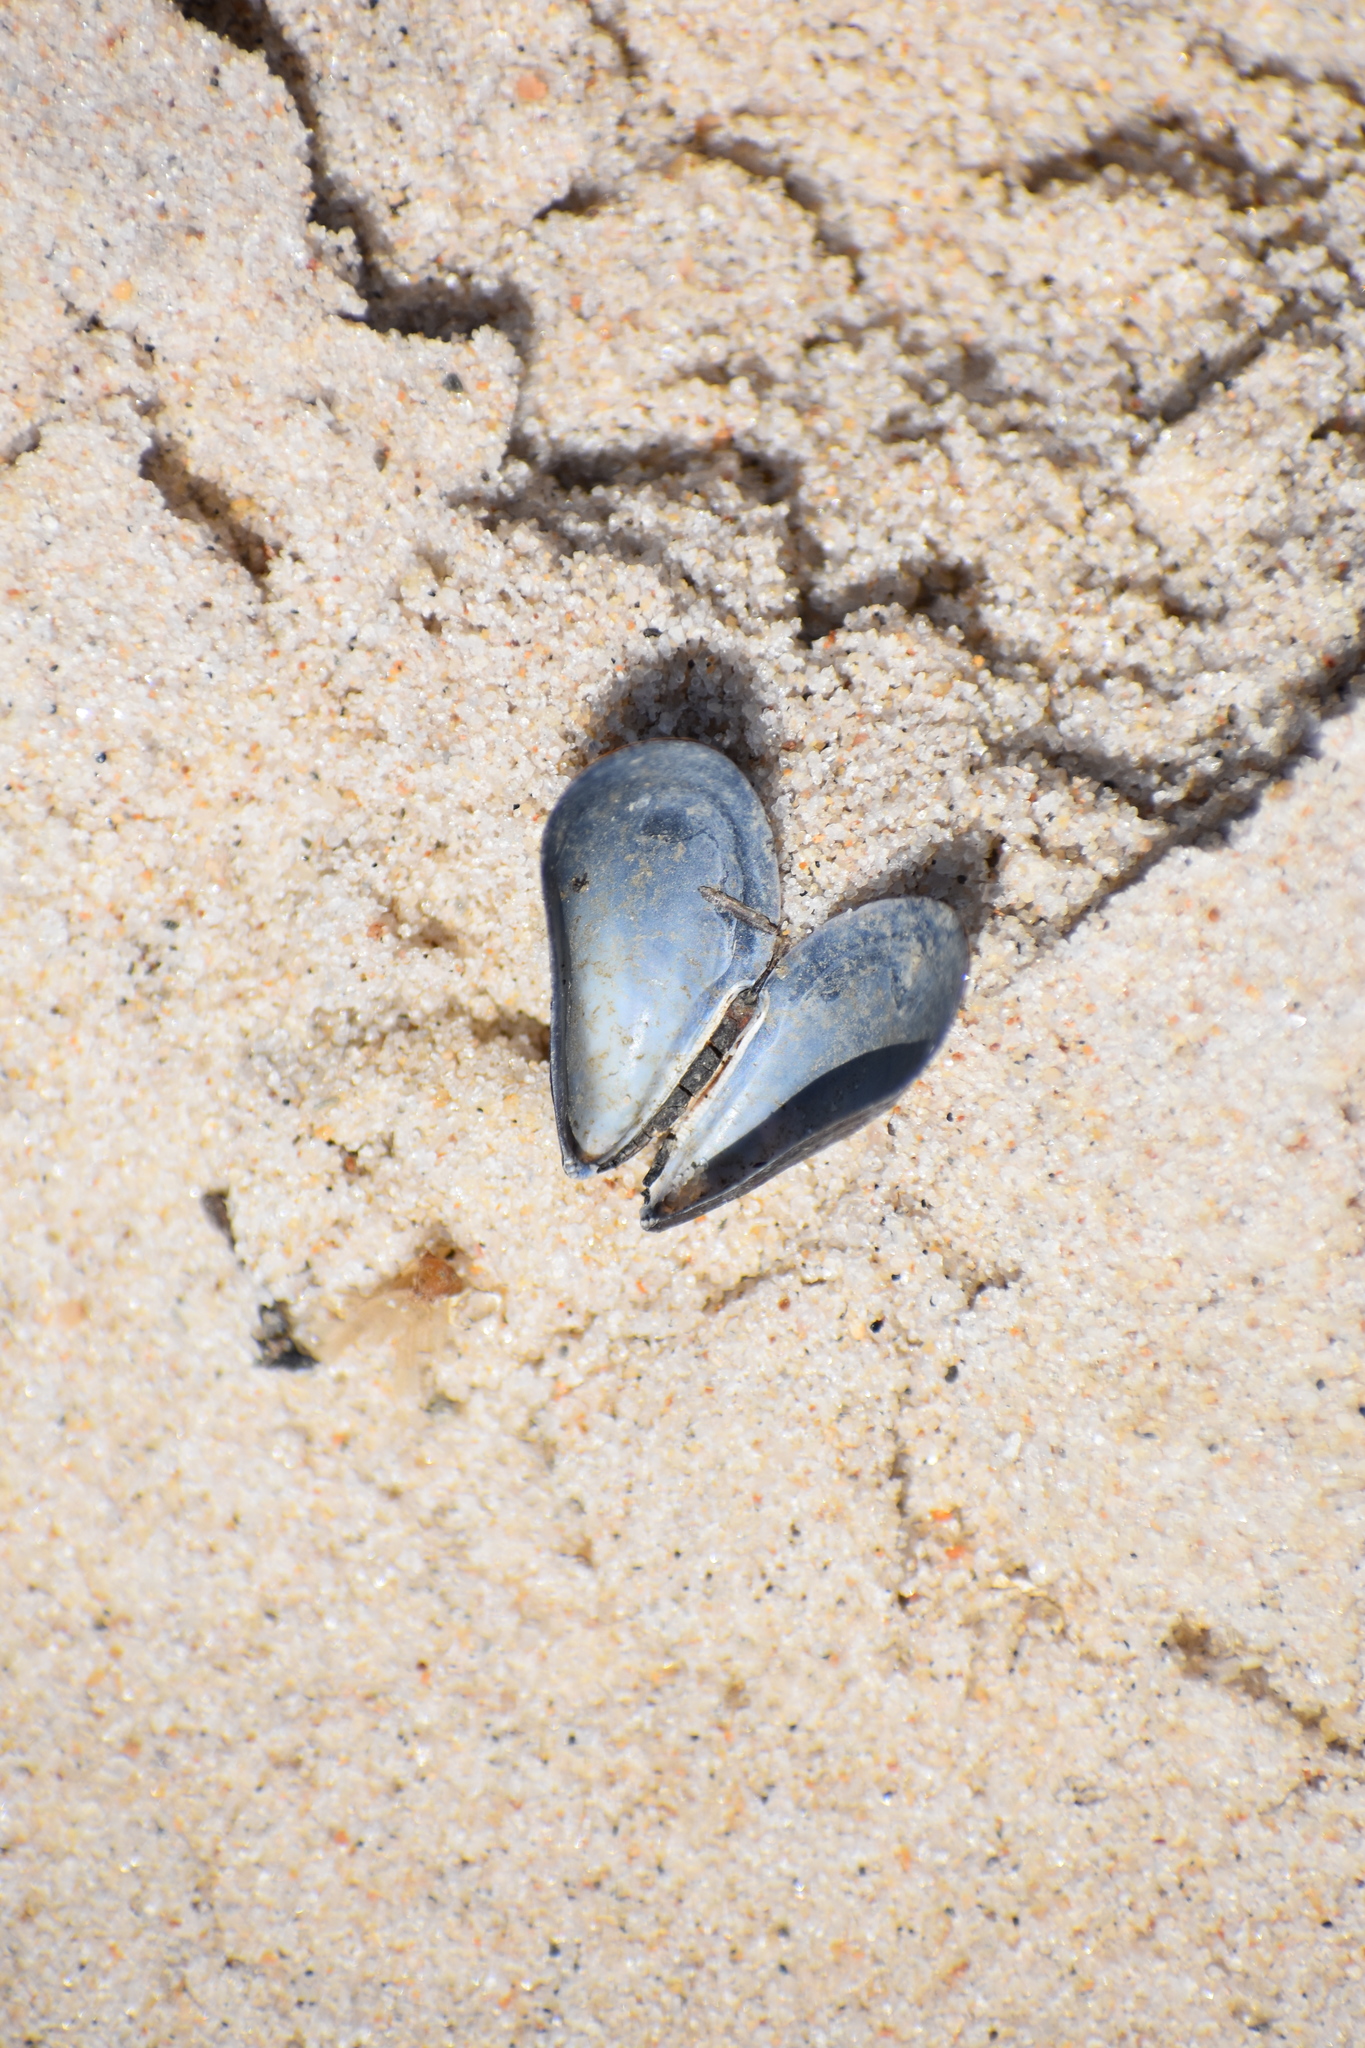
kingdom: Animalia
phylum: Mollusca
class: Bivalvia
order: Mytilida
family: Mytilidae
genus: Mytilus
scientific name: Mytilus edulis
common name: Blue mussel
